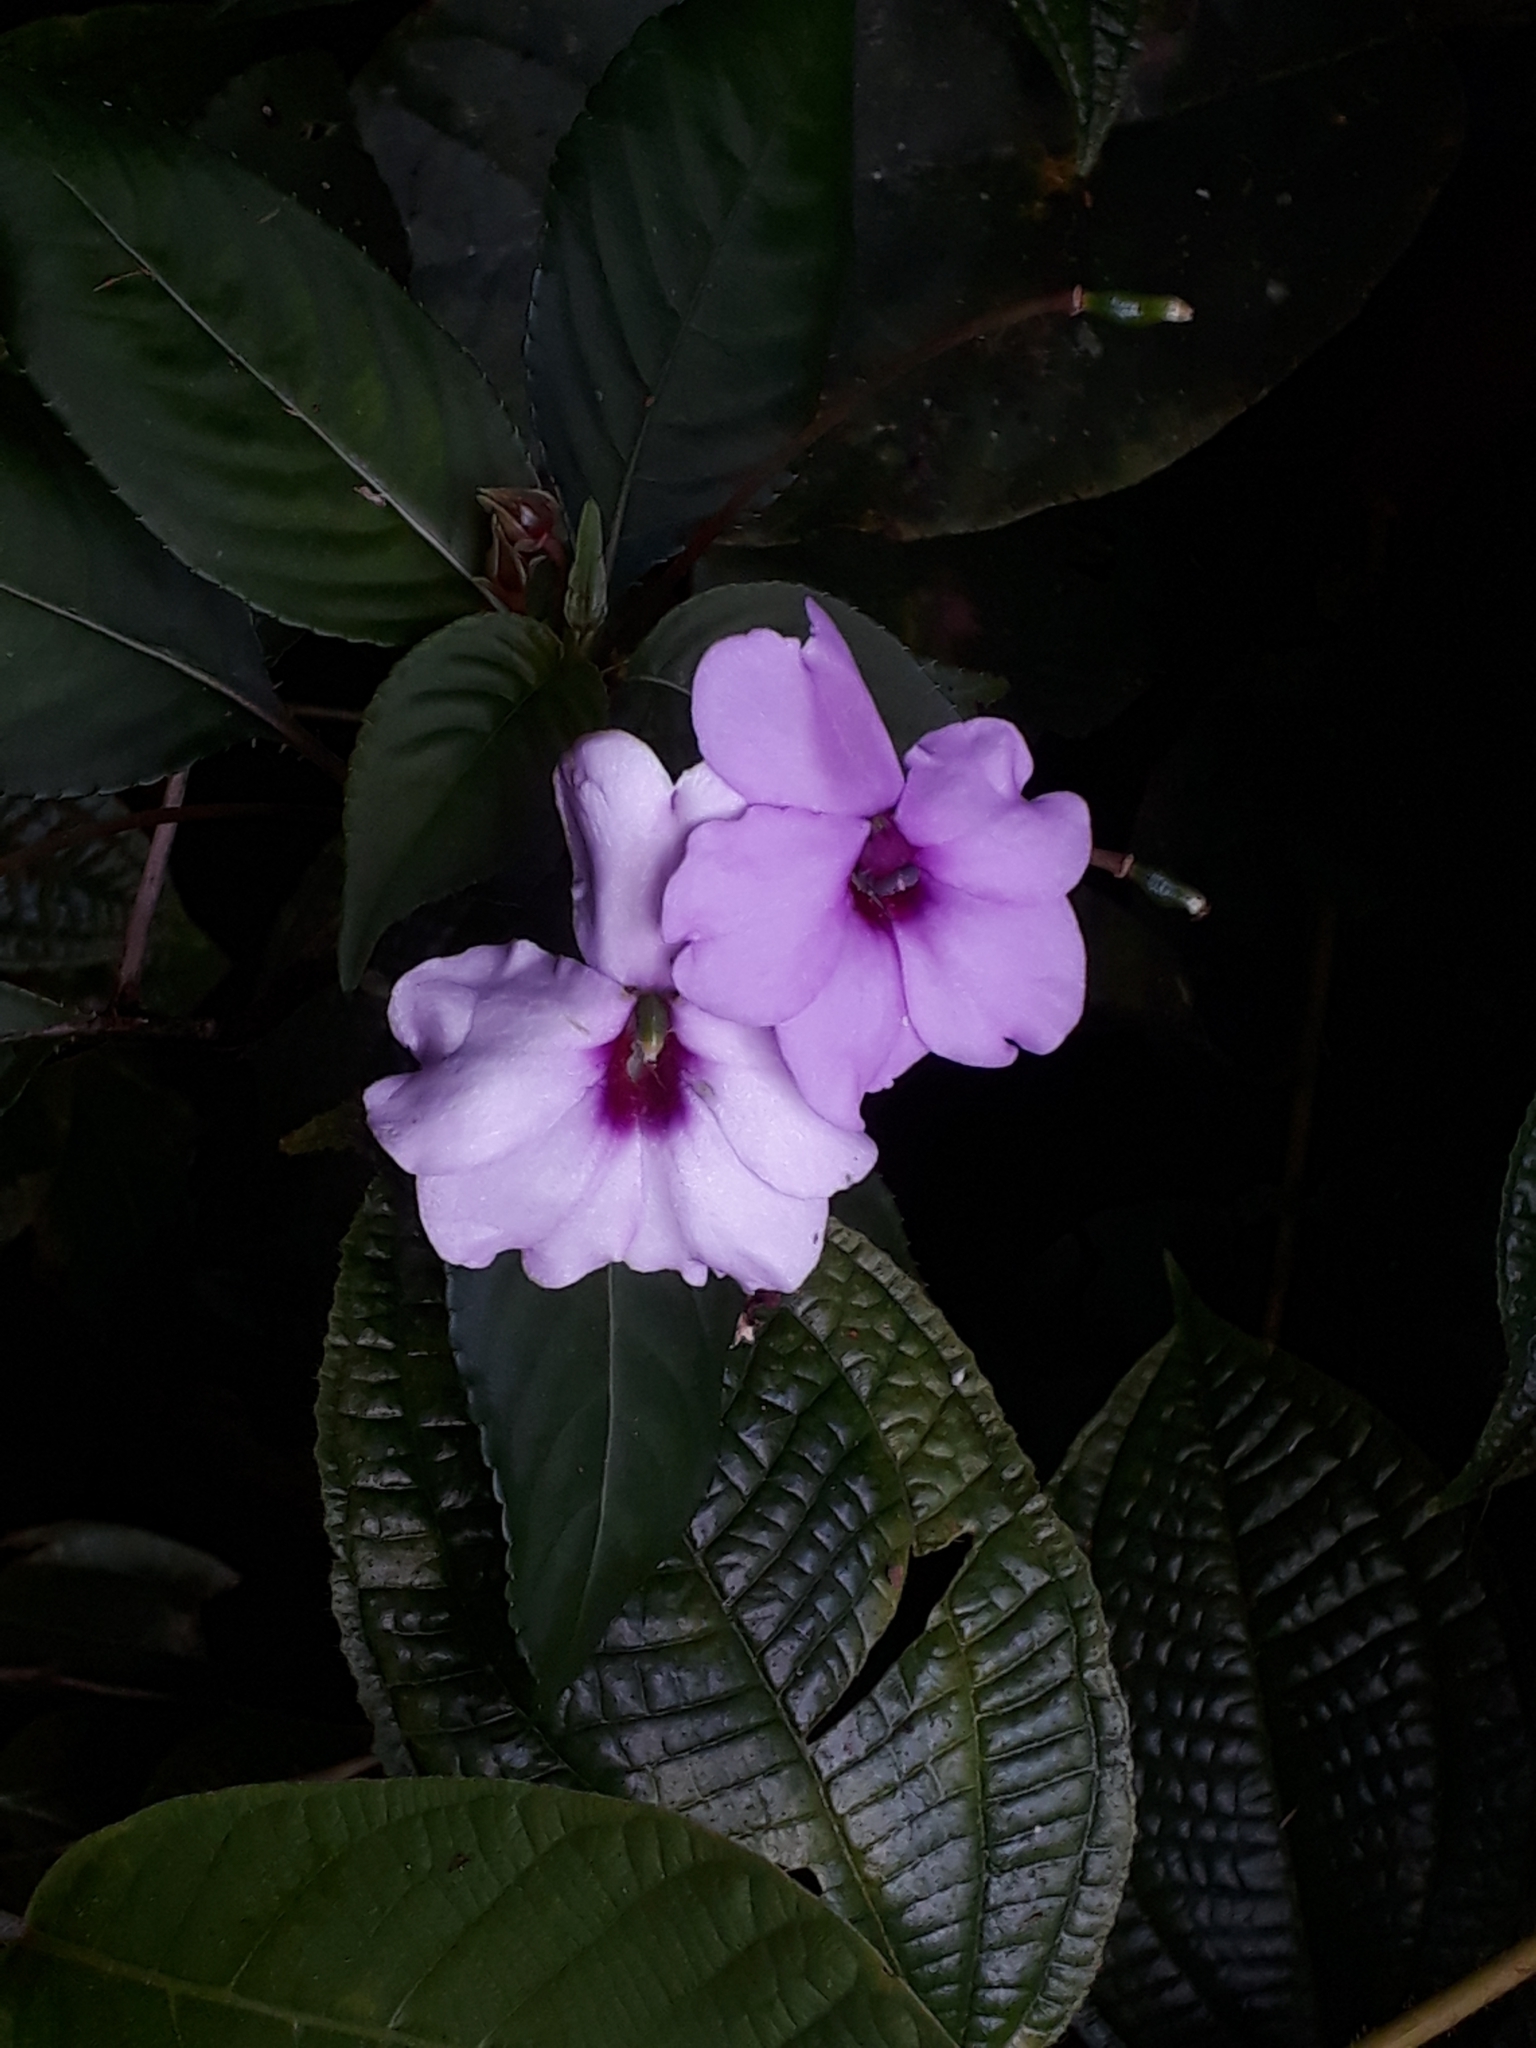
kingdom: Plantae
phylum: Tracheophyta
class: Magnoliopsida
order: Ericales
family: Balsaminaceae
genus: Impatiens
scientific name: Impatiens flaccida
